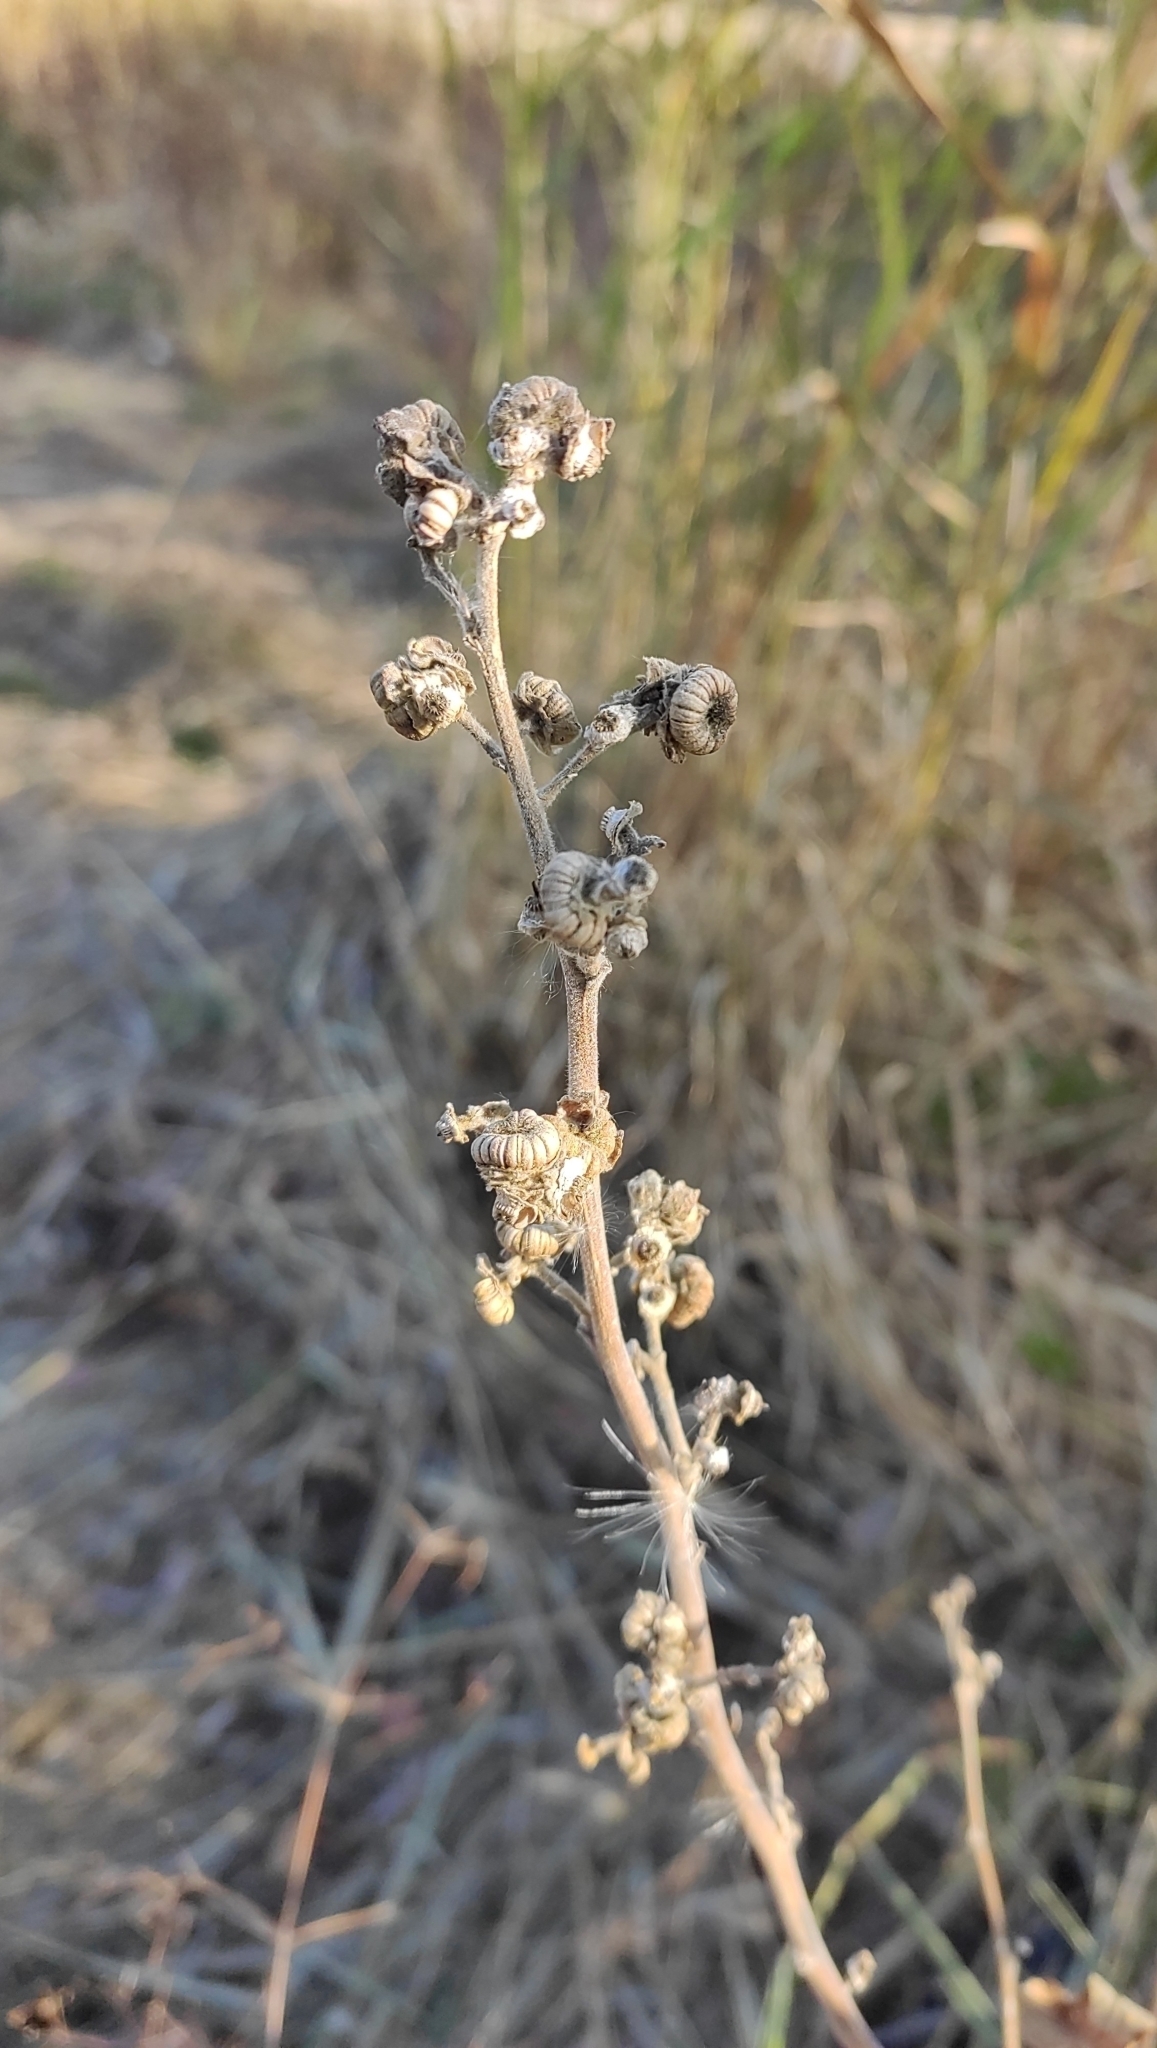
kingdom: Plantae
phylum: Tracheophyta
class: Magnoliopsida
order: Malvales
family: Malvaceae
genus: Althaea
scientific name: Althaea officinalis
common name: Marsh-mallow
